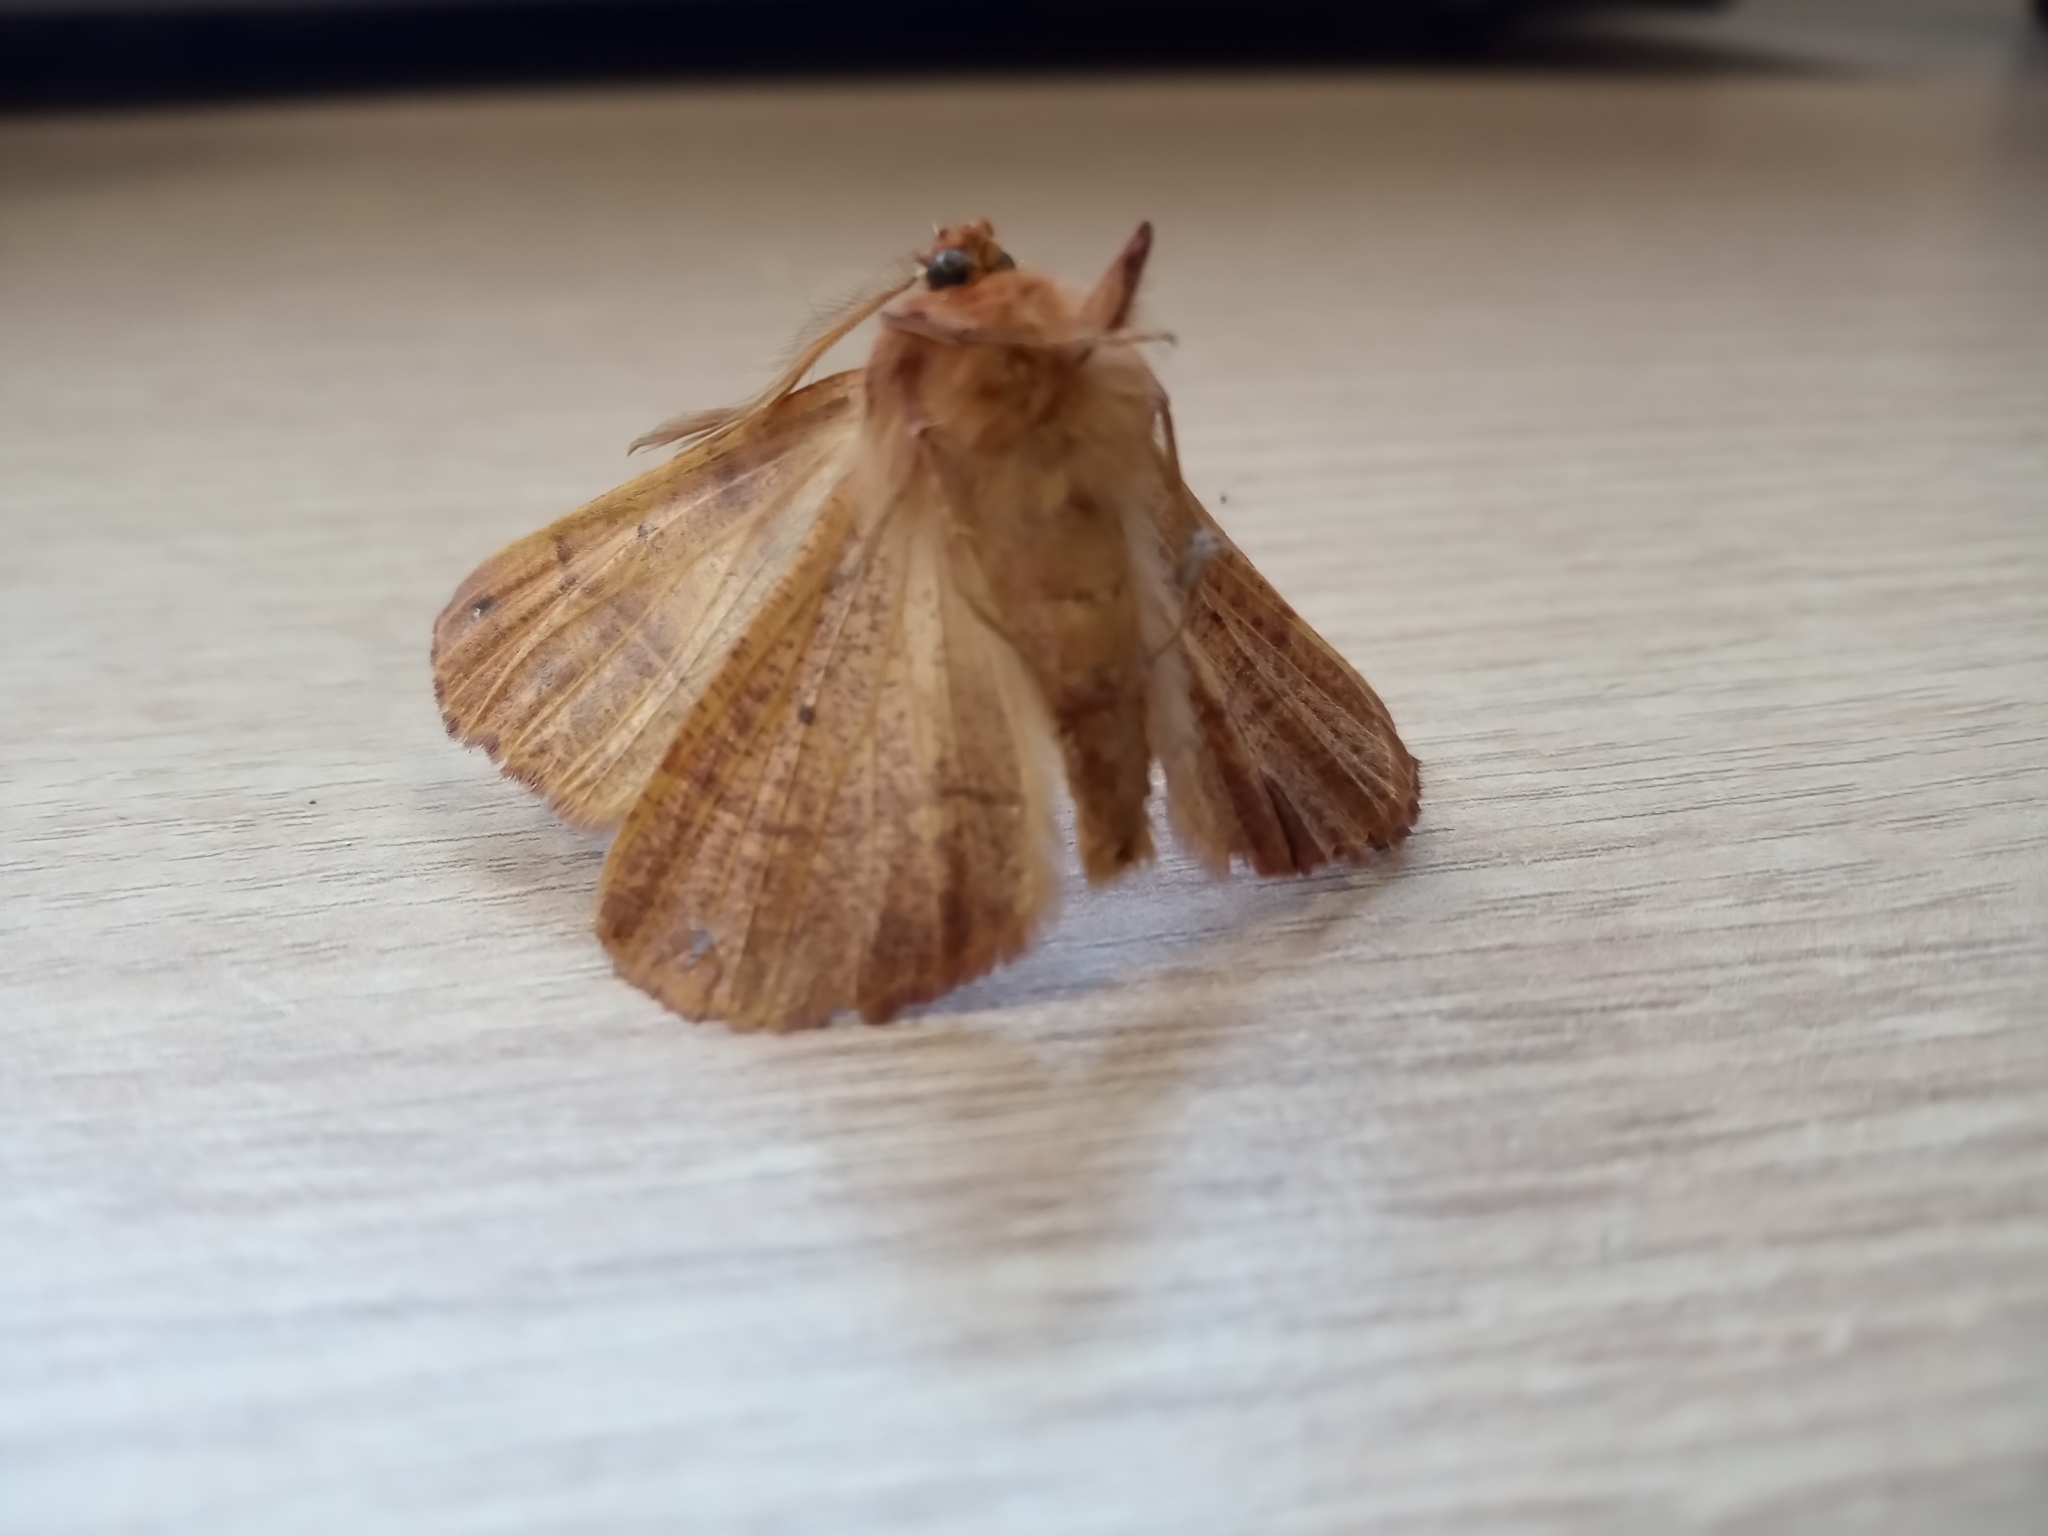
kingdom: Animalia
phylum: Arthropoda
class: Insecta
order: Lepidoptera
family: Geometridae
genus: Colotois
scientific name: Colotois pennaria
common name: Feathered thorn
